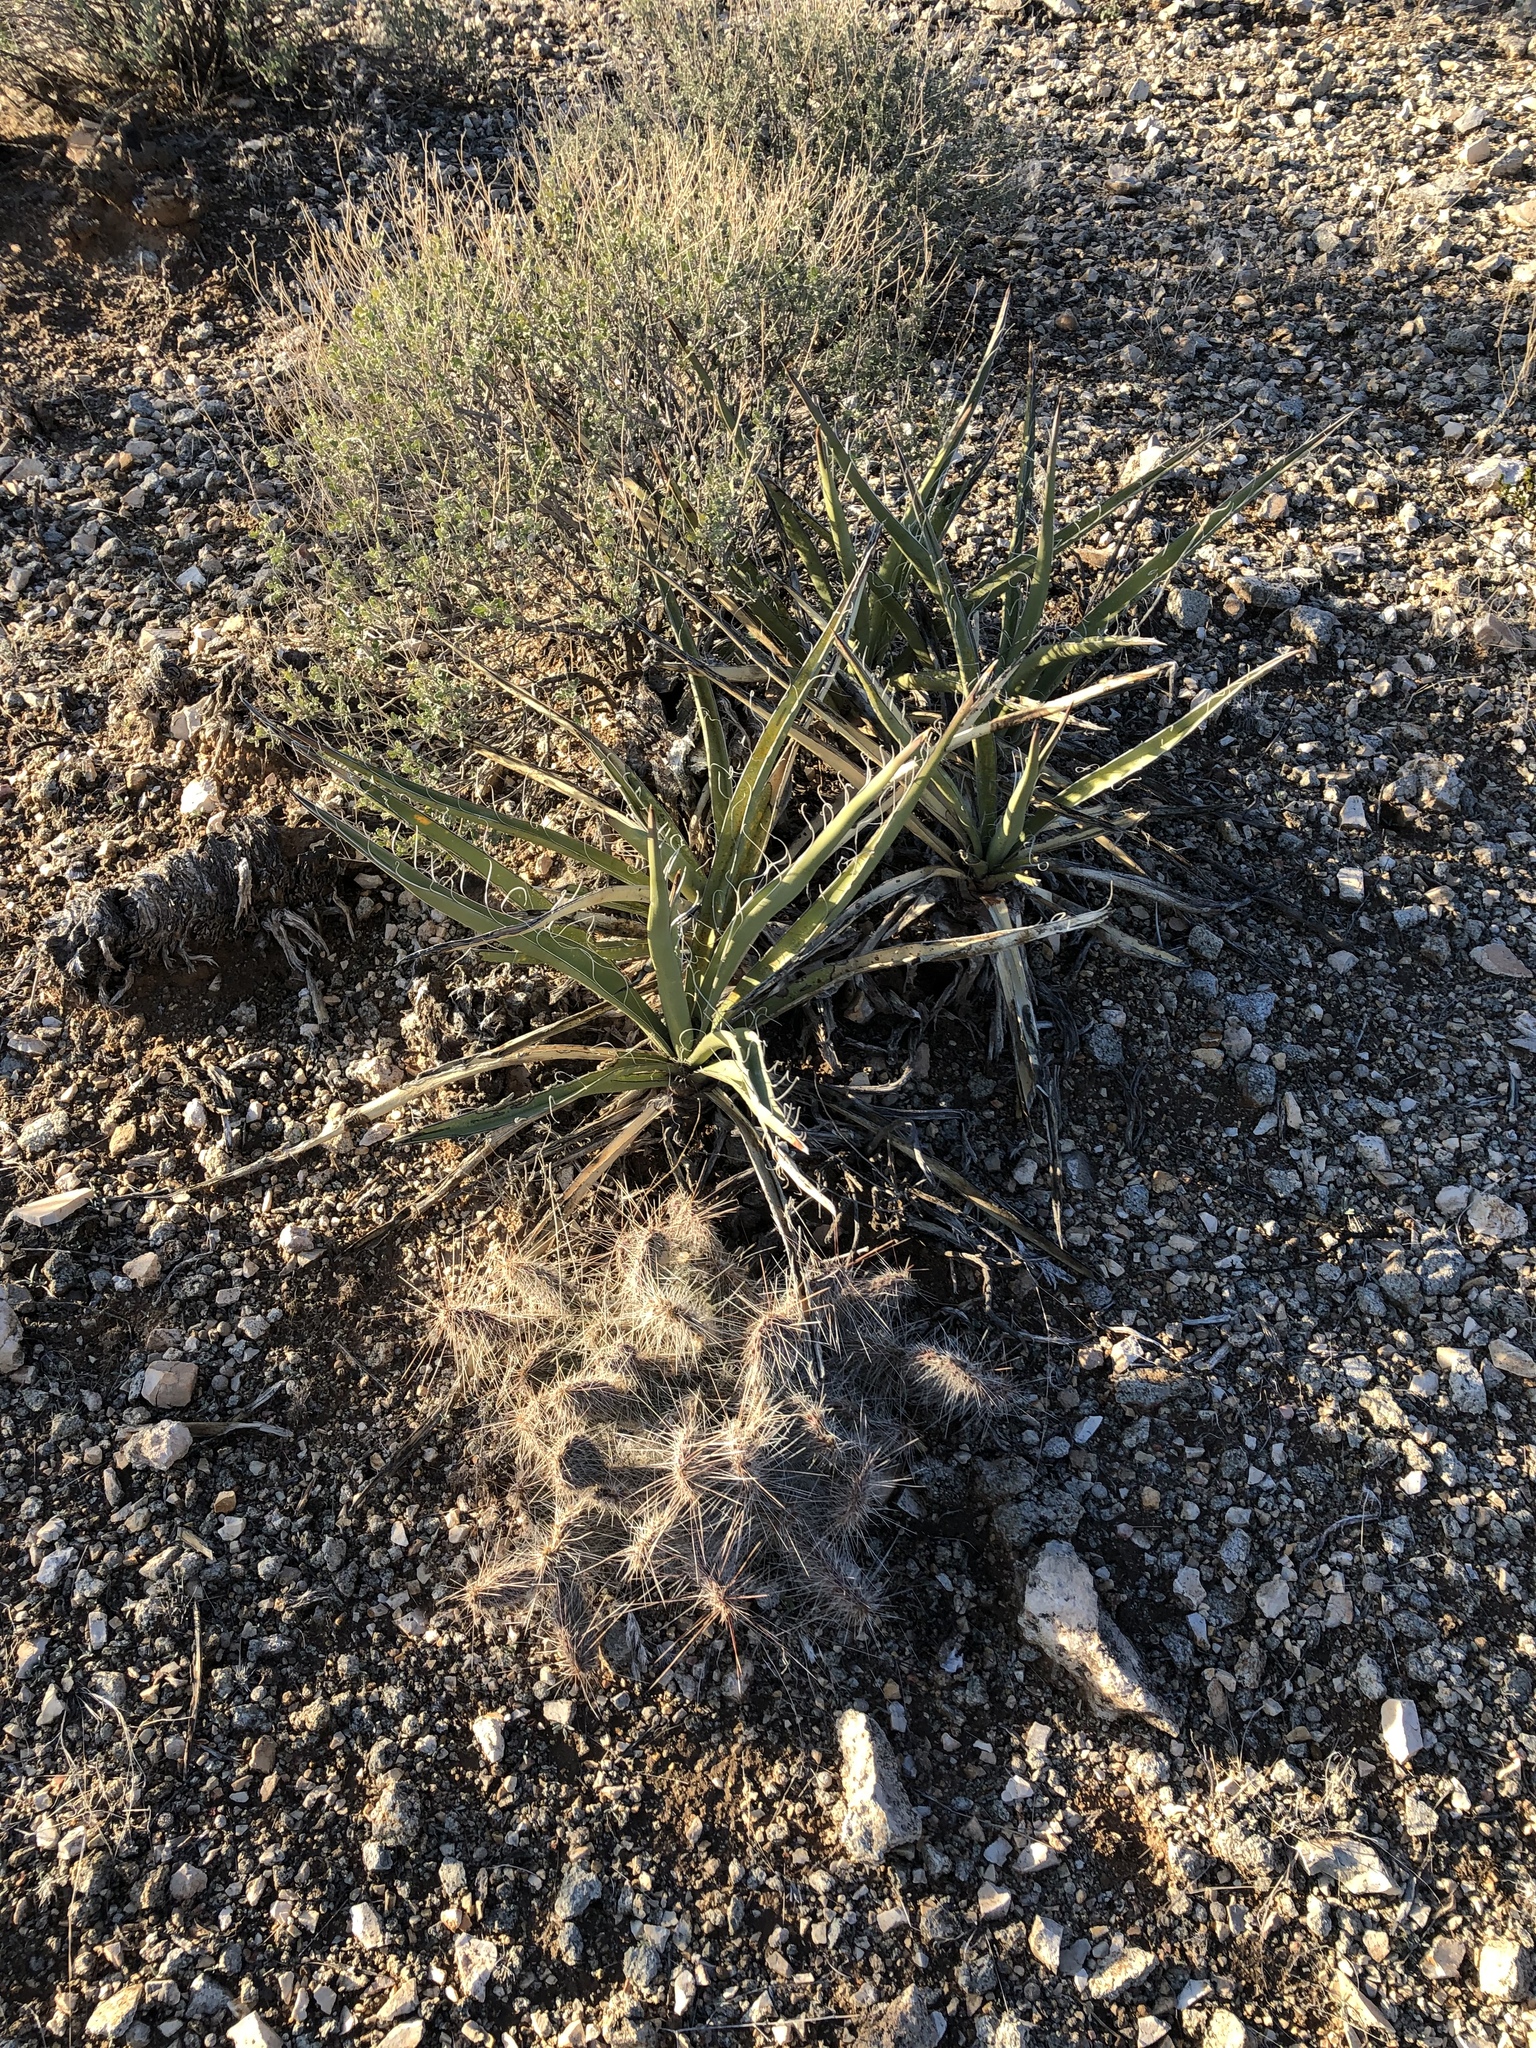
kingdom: Plantae
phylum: Tracheophyta
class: Liliopsida
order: Asparagales
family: Asparagaceae
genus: Yucca
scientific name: Yucca baccata
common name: Banana yucca
